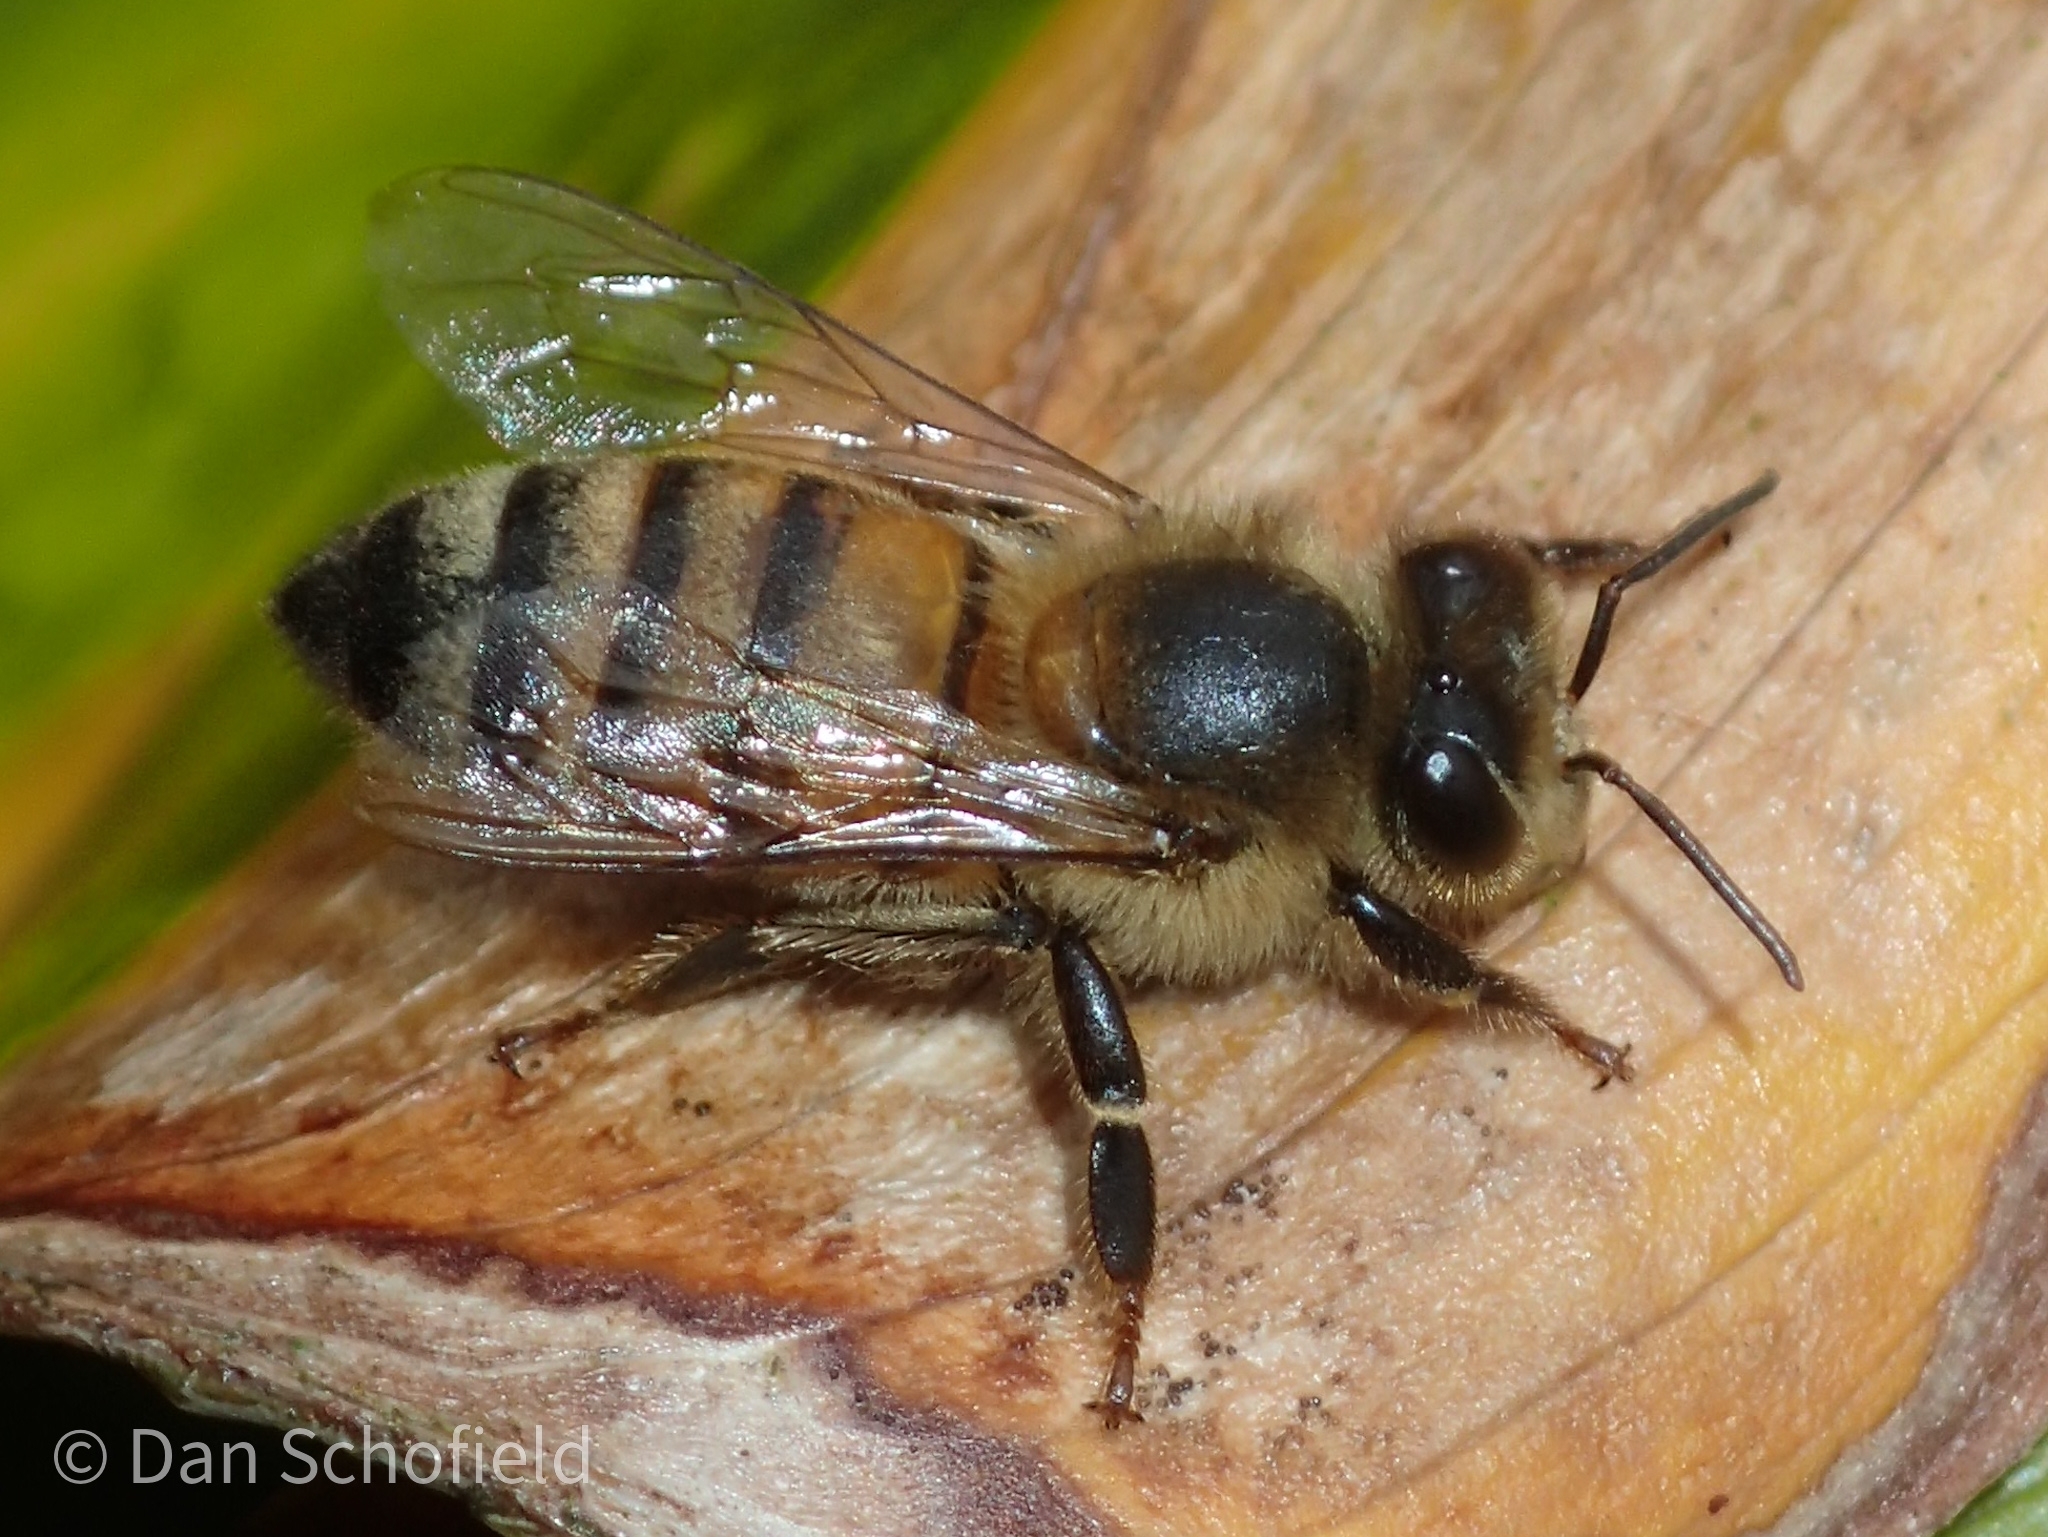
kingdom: Animalia
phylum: Arthropoda
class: Insecta
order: Hymenoptera
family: Apidae
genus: Apis
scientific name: Apis mellifera
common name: Honey bee
